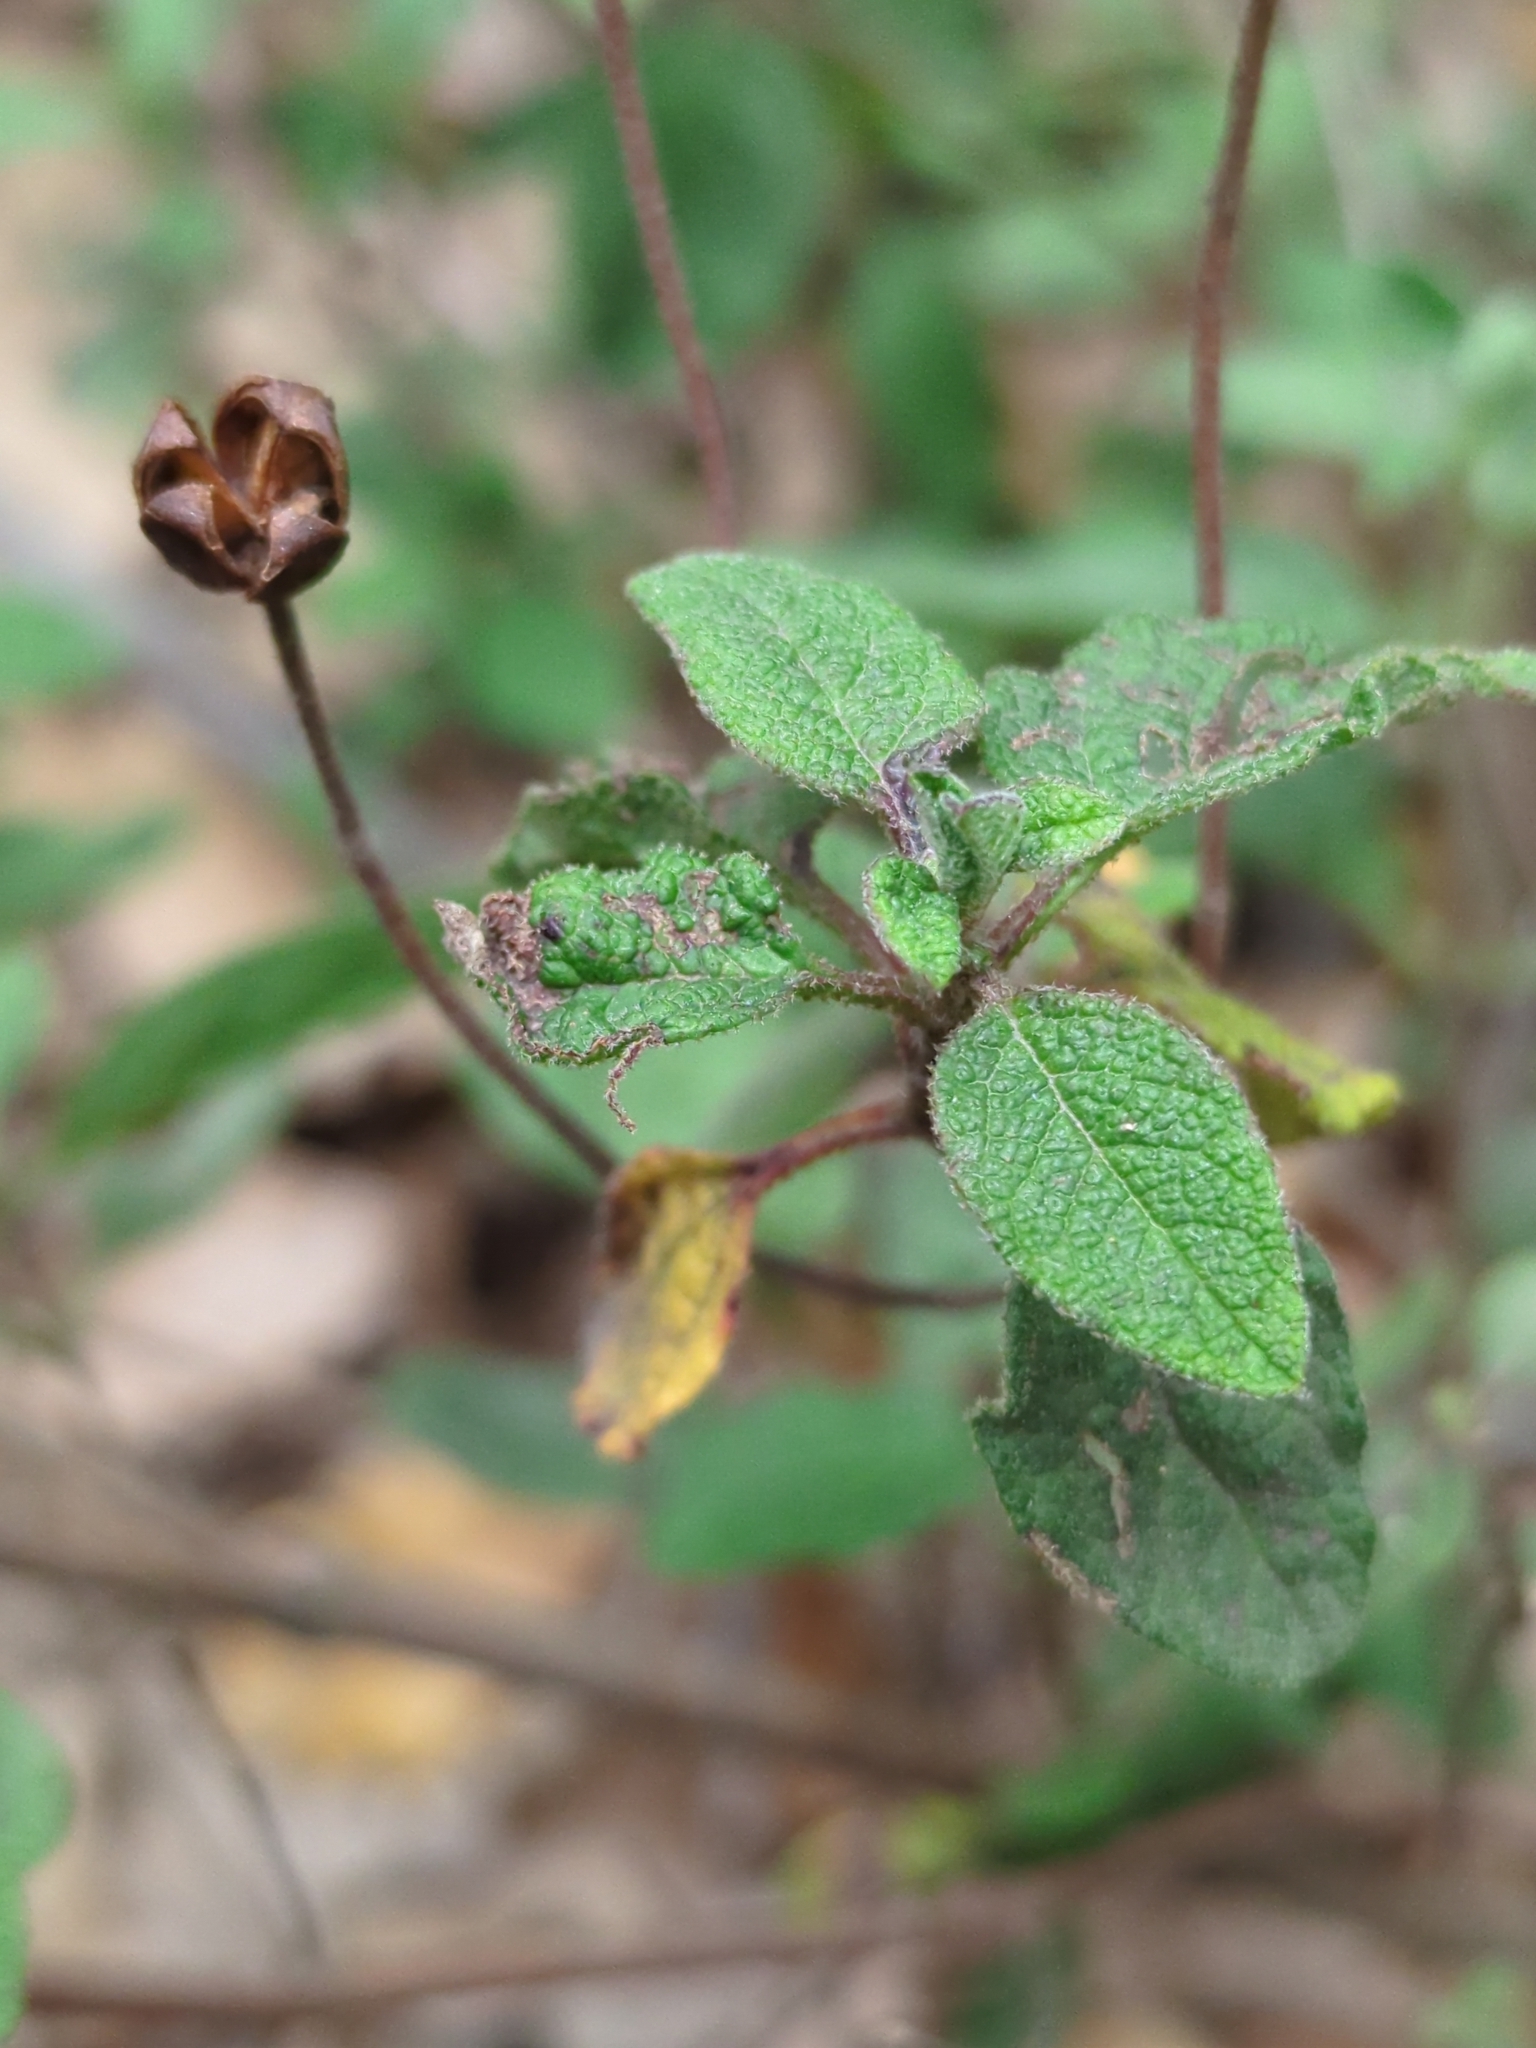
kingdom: Plantae
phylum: Tracheophyta
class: Magnoliopsida
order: Malvales
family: Cistaceae
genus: Cistus
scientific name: Cistus salviifolius
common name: Salvia cistus
